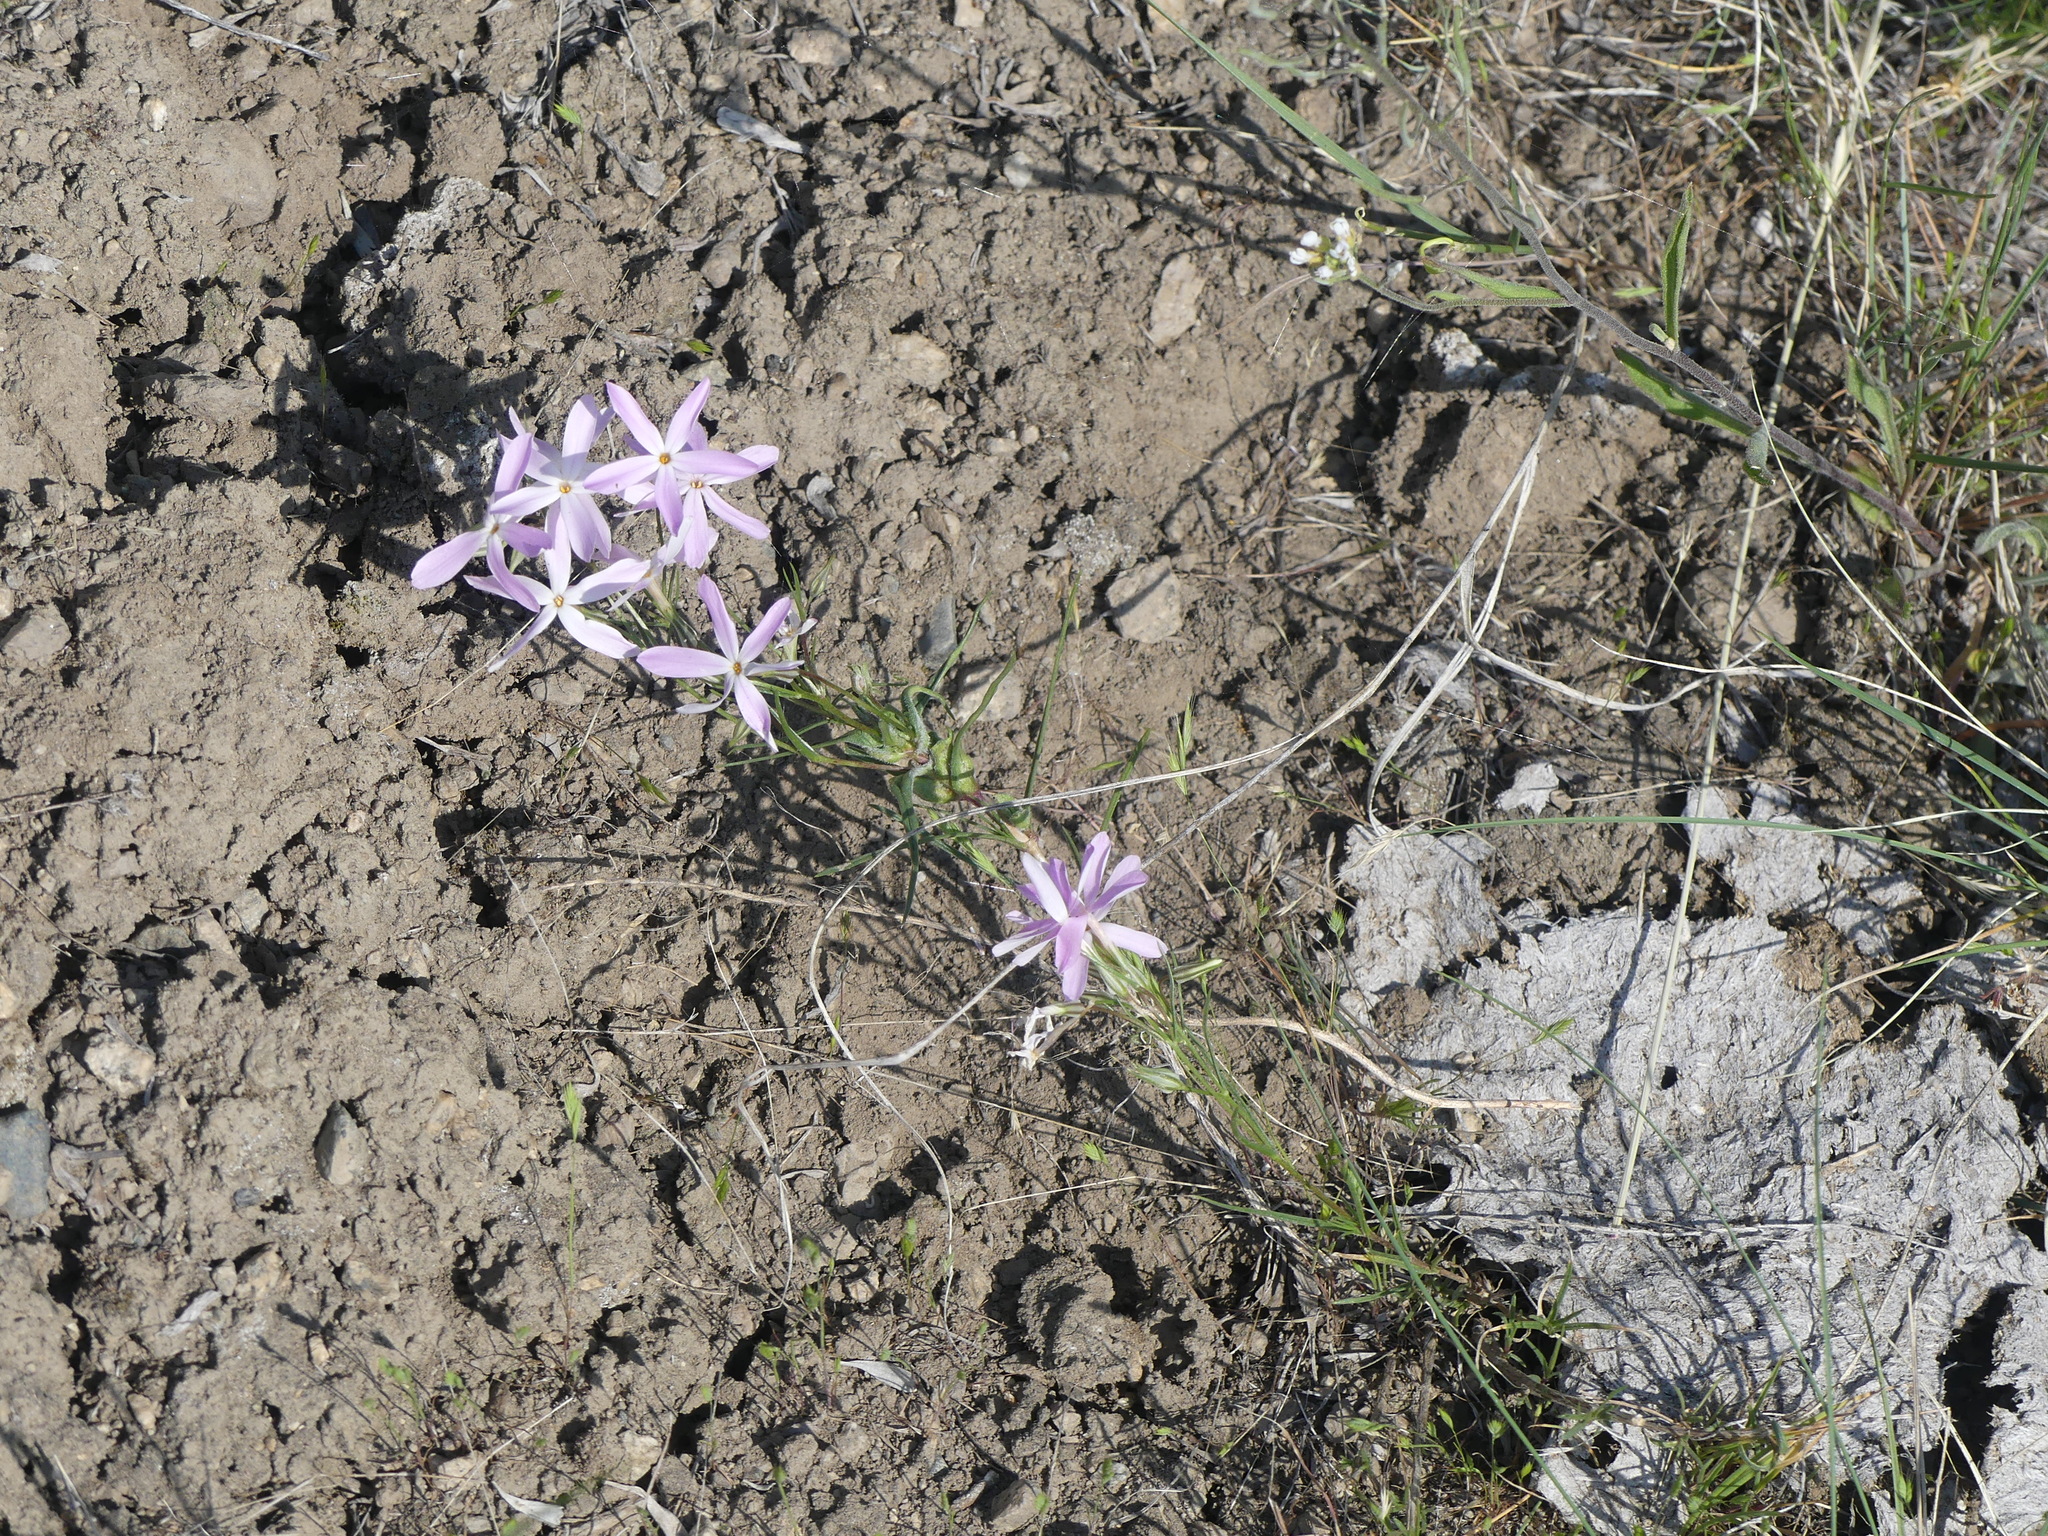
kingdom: Plantae
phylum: Tracheophyta
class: Magnoliopsida
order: Ericales
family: Polemoniaceae
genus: Phlox
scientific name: Phlox longifolia
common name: Longleaf phlox
